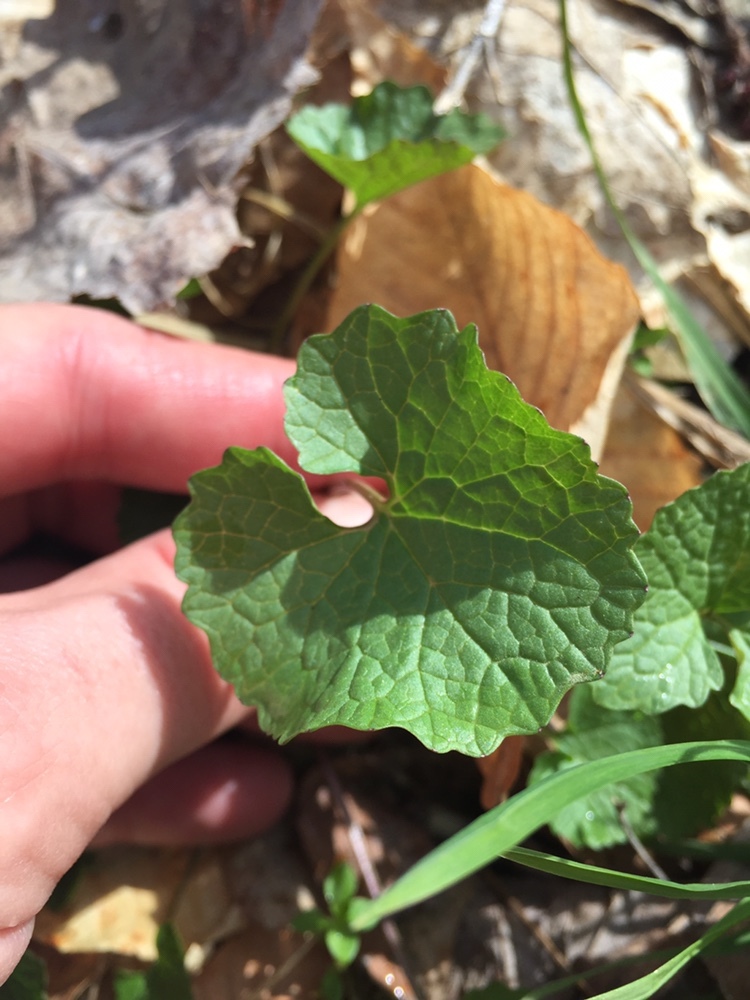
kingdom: Plantae
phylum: Tracheophyta
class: Magnoliopsida
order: Brassicales
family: Brassicaceae
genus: Alliaria
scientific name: Alliaria petiolata
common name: Garlic mustard
